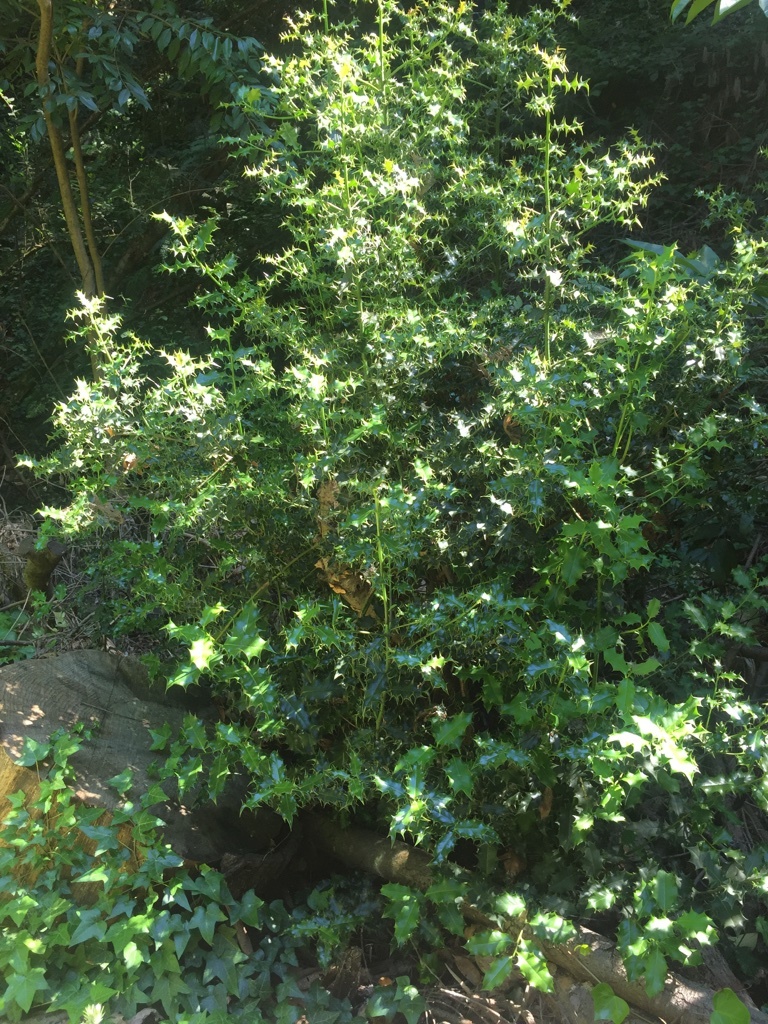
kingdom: Plantae
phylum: Tracheophyta
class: Magnoliopsida
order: Aquifoliales
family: Aquifoliaceae
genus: Ilex
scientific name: Ilex aquifolium
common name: English holly
